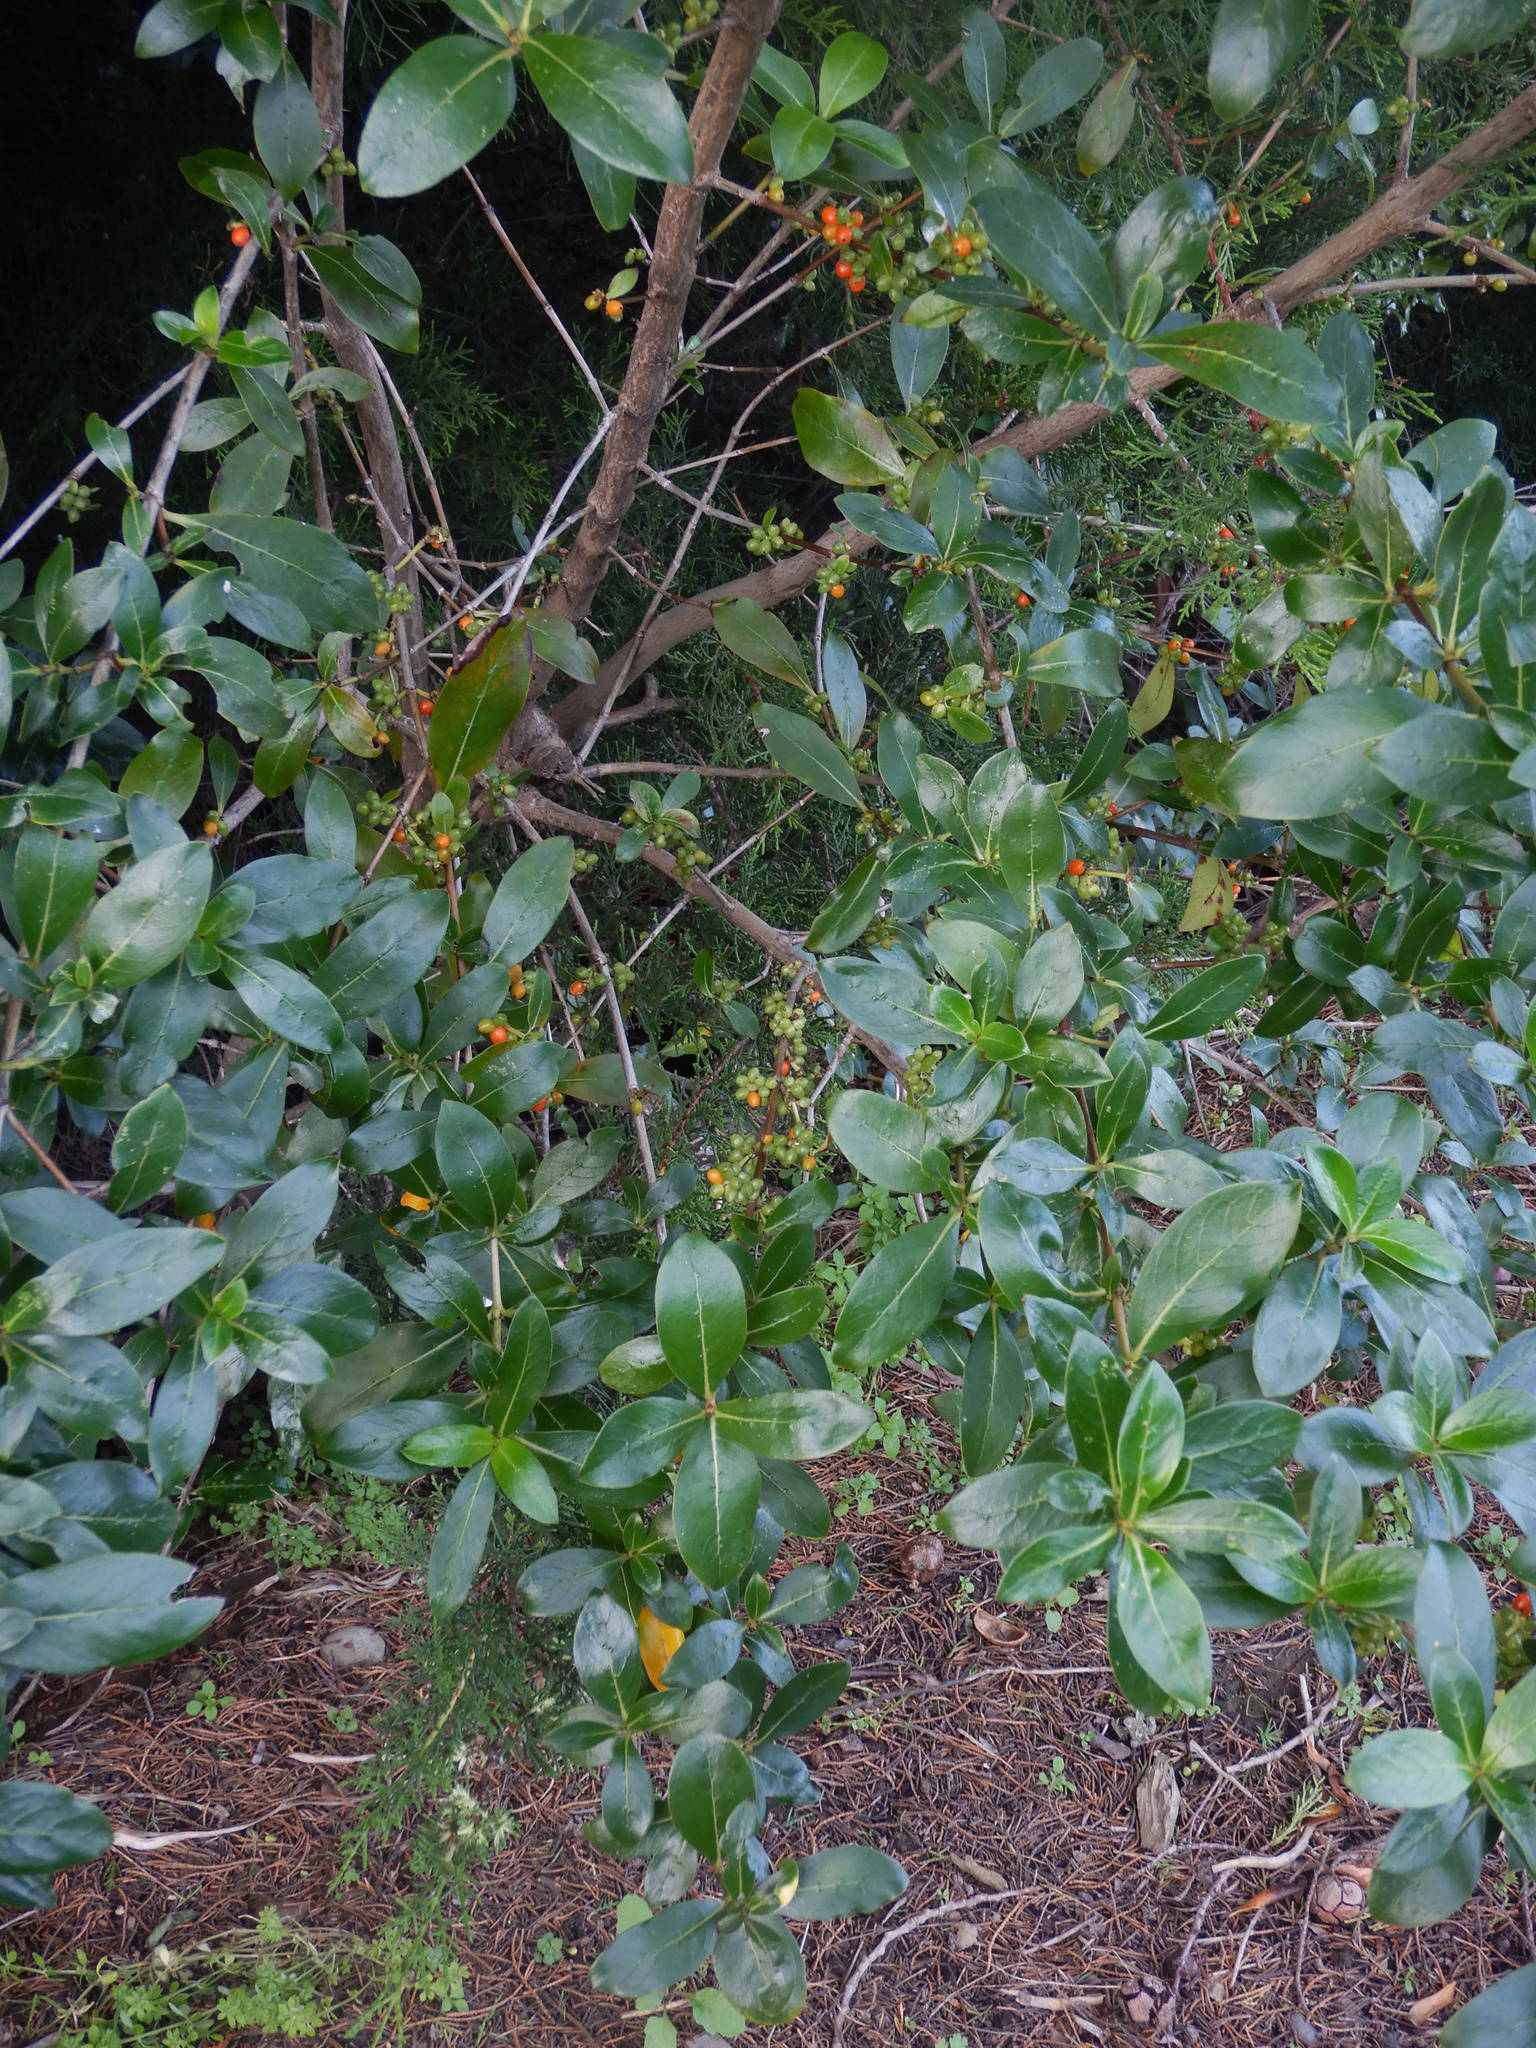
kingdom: Plantae
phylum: Tracheophyta
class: Magnoliopsida
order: Gentianales
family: Rubiaceae
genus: Coprosma
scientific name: Coprosma robusta
